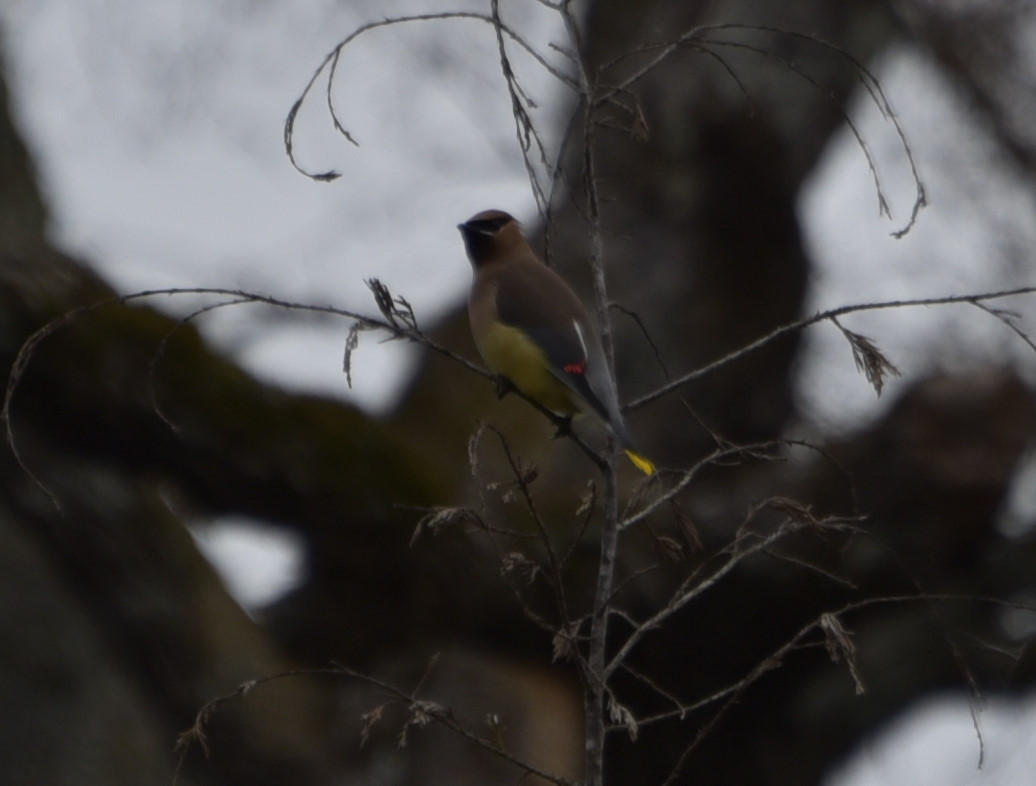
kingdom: Animalia
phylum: Chordata
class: Aves
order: Passeriformes
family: Bombycillidae
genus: Bombycilla
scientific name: Bombycilla cedrorum
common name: Cedar waxwing
